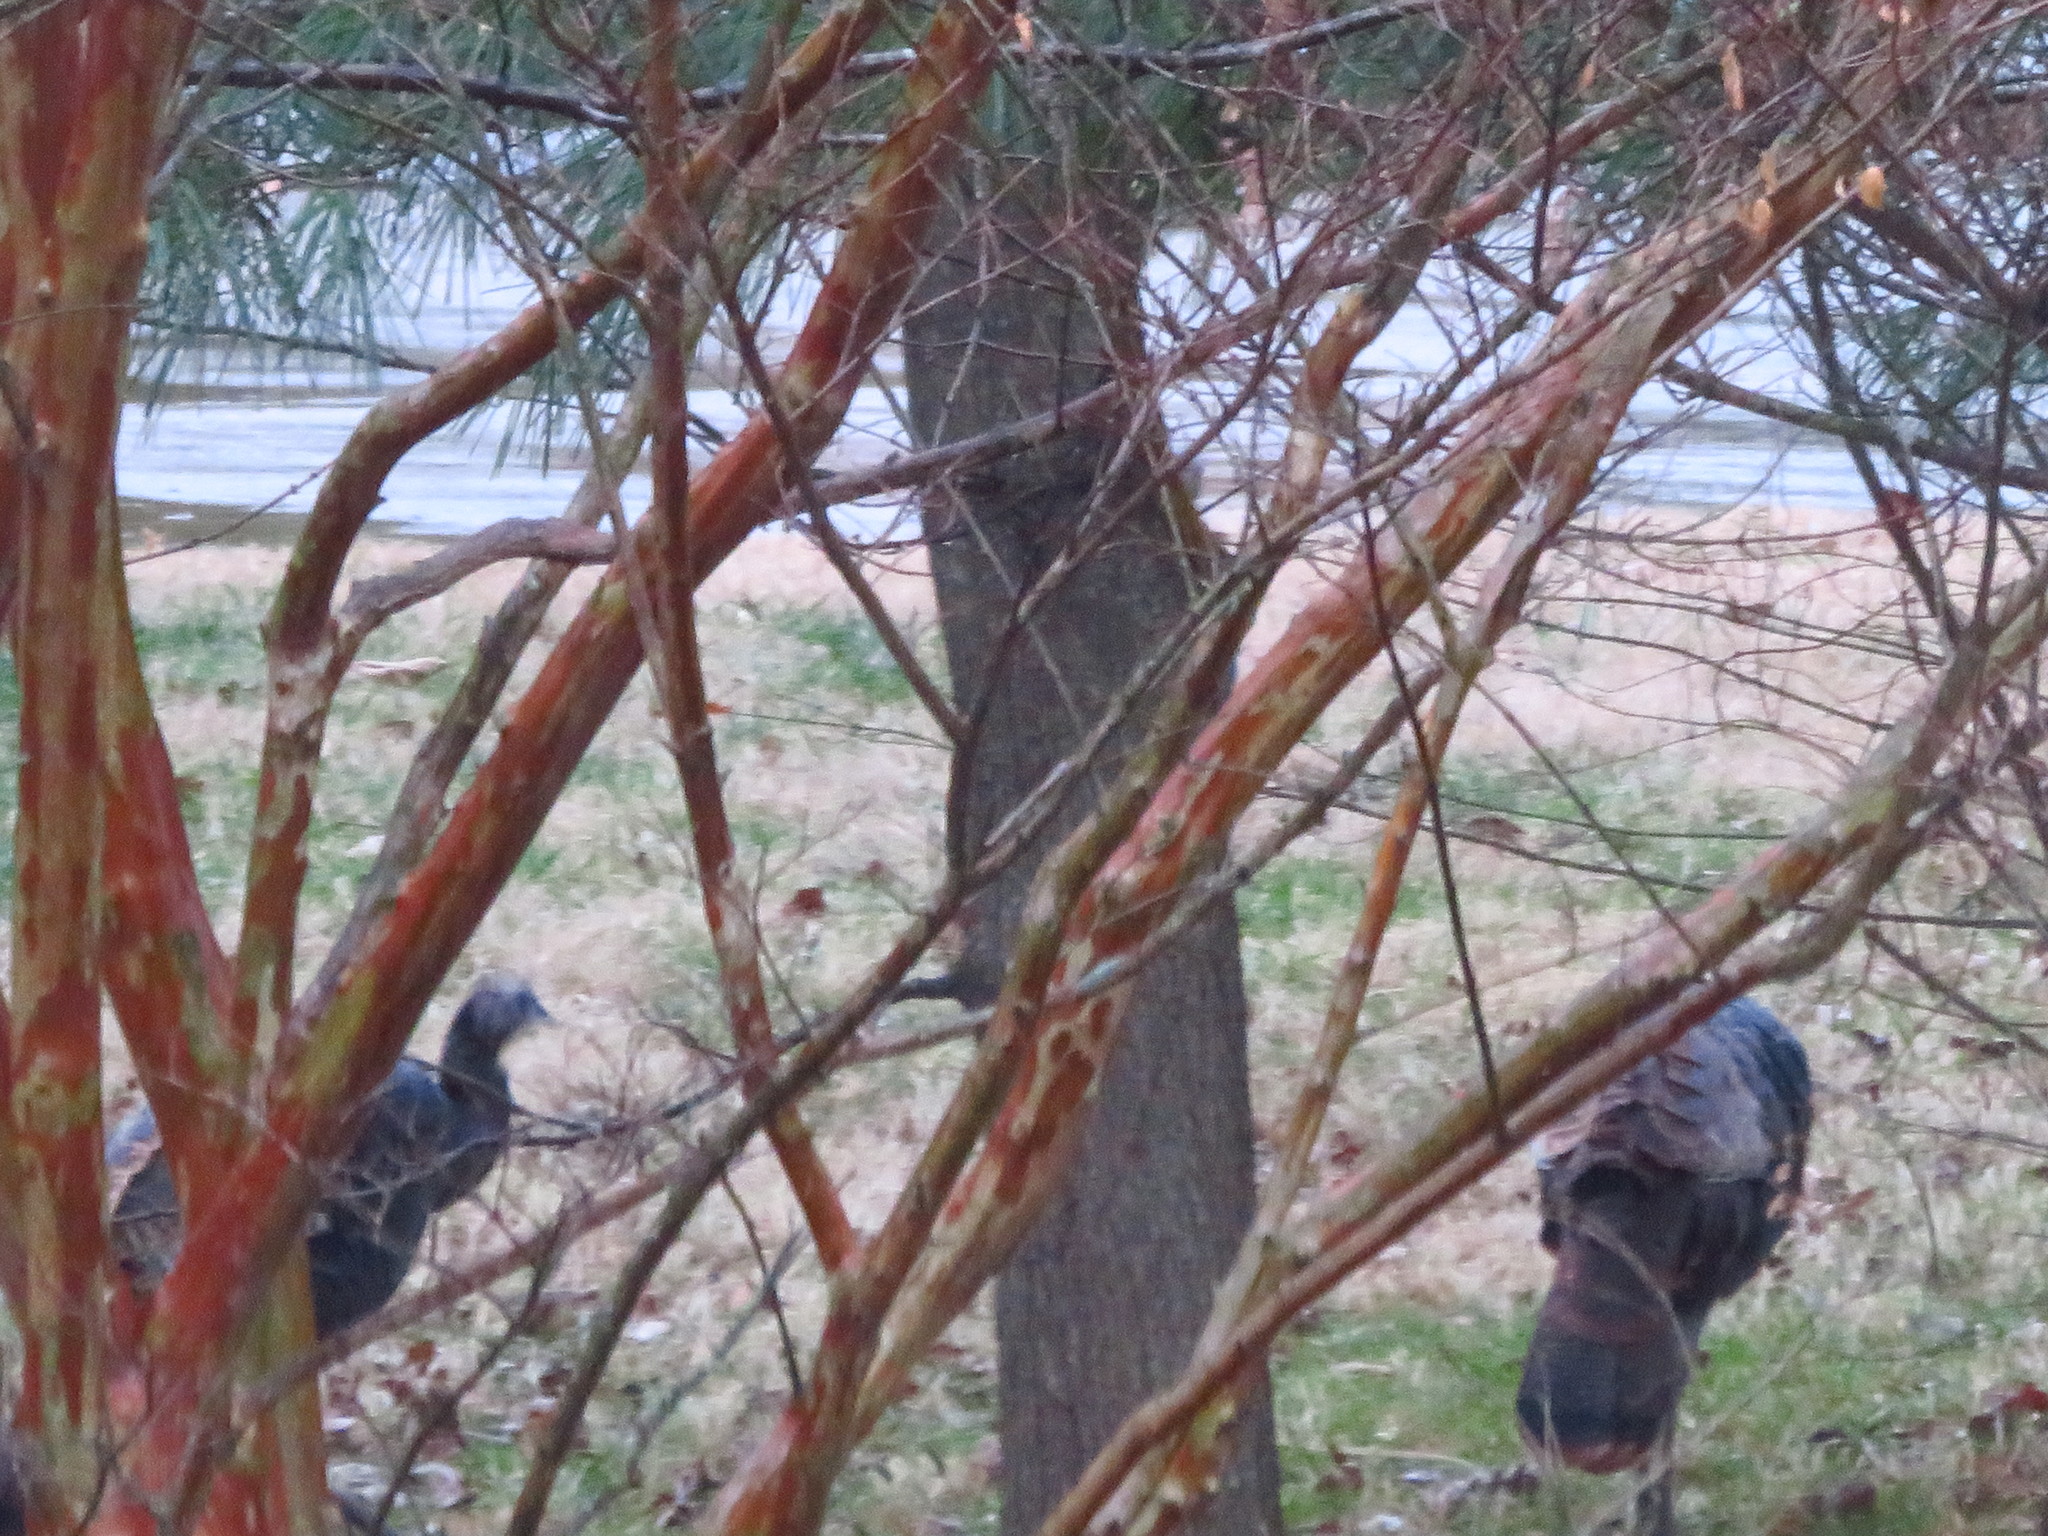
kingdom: Animalia
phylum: Chordata
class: Aves
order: Galliformes
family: Phasianidae
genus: Meleagris
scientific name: Meleagris gallopavo
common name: Wild turkey
